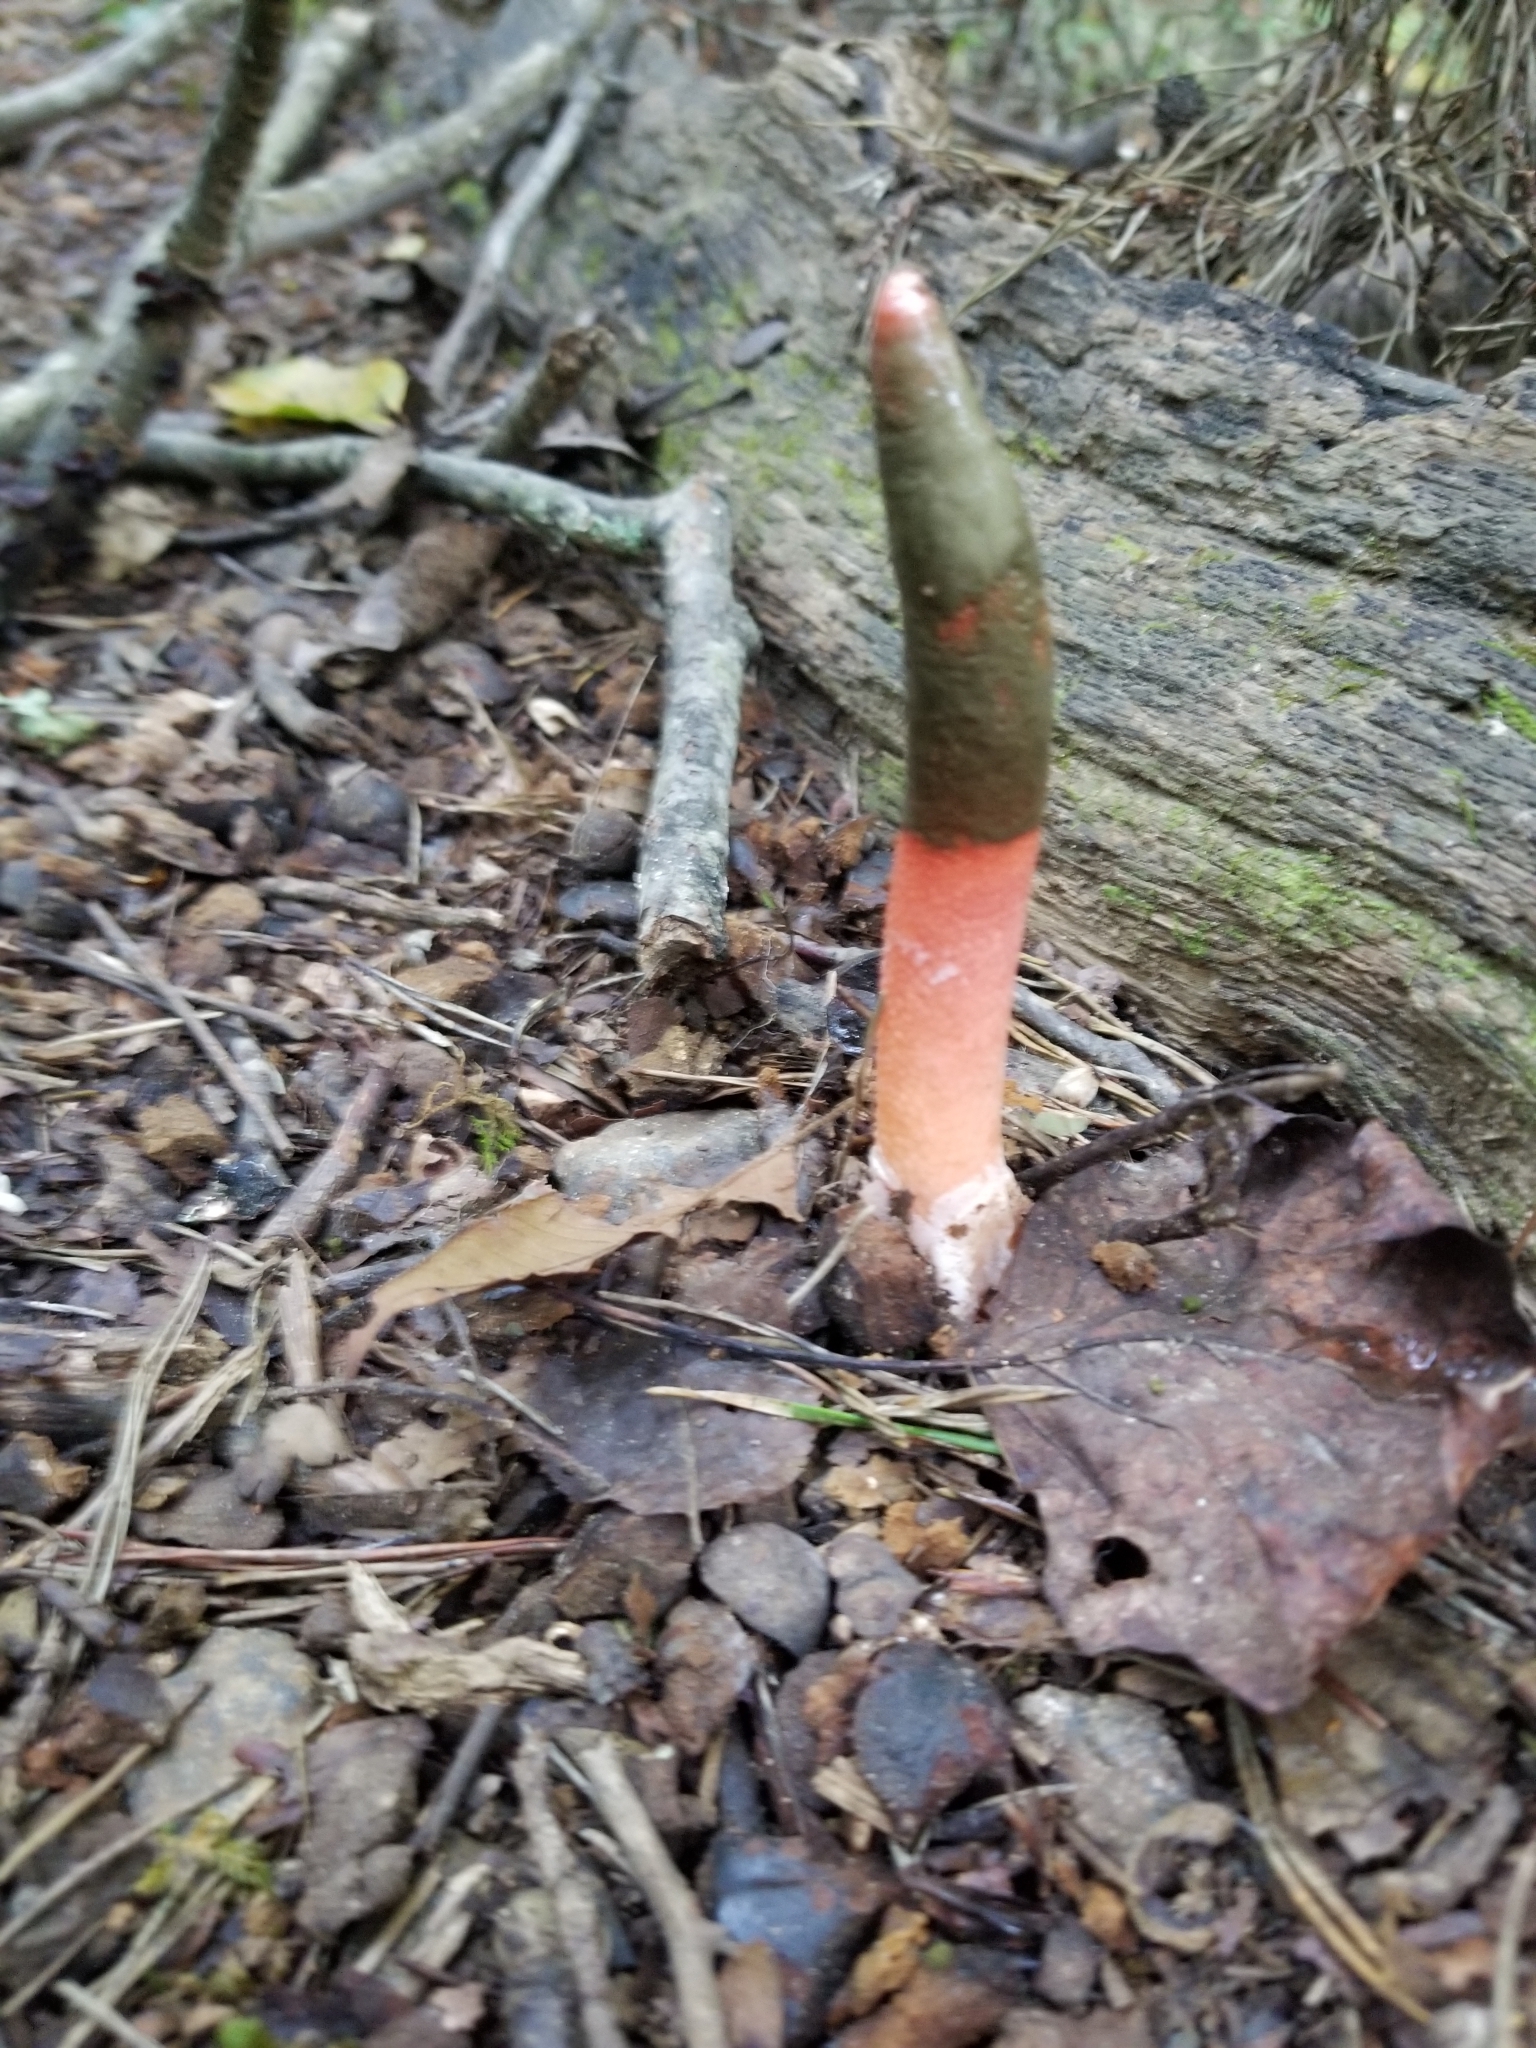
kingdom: Fungi
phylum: Basidiomycota
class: Agaricomycetes
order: Phallales
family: Phallaceae
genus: Mutinus
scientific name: Mutinus elegans
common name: Devil's dipstick
